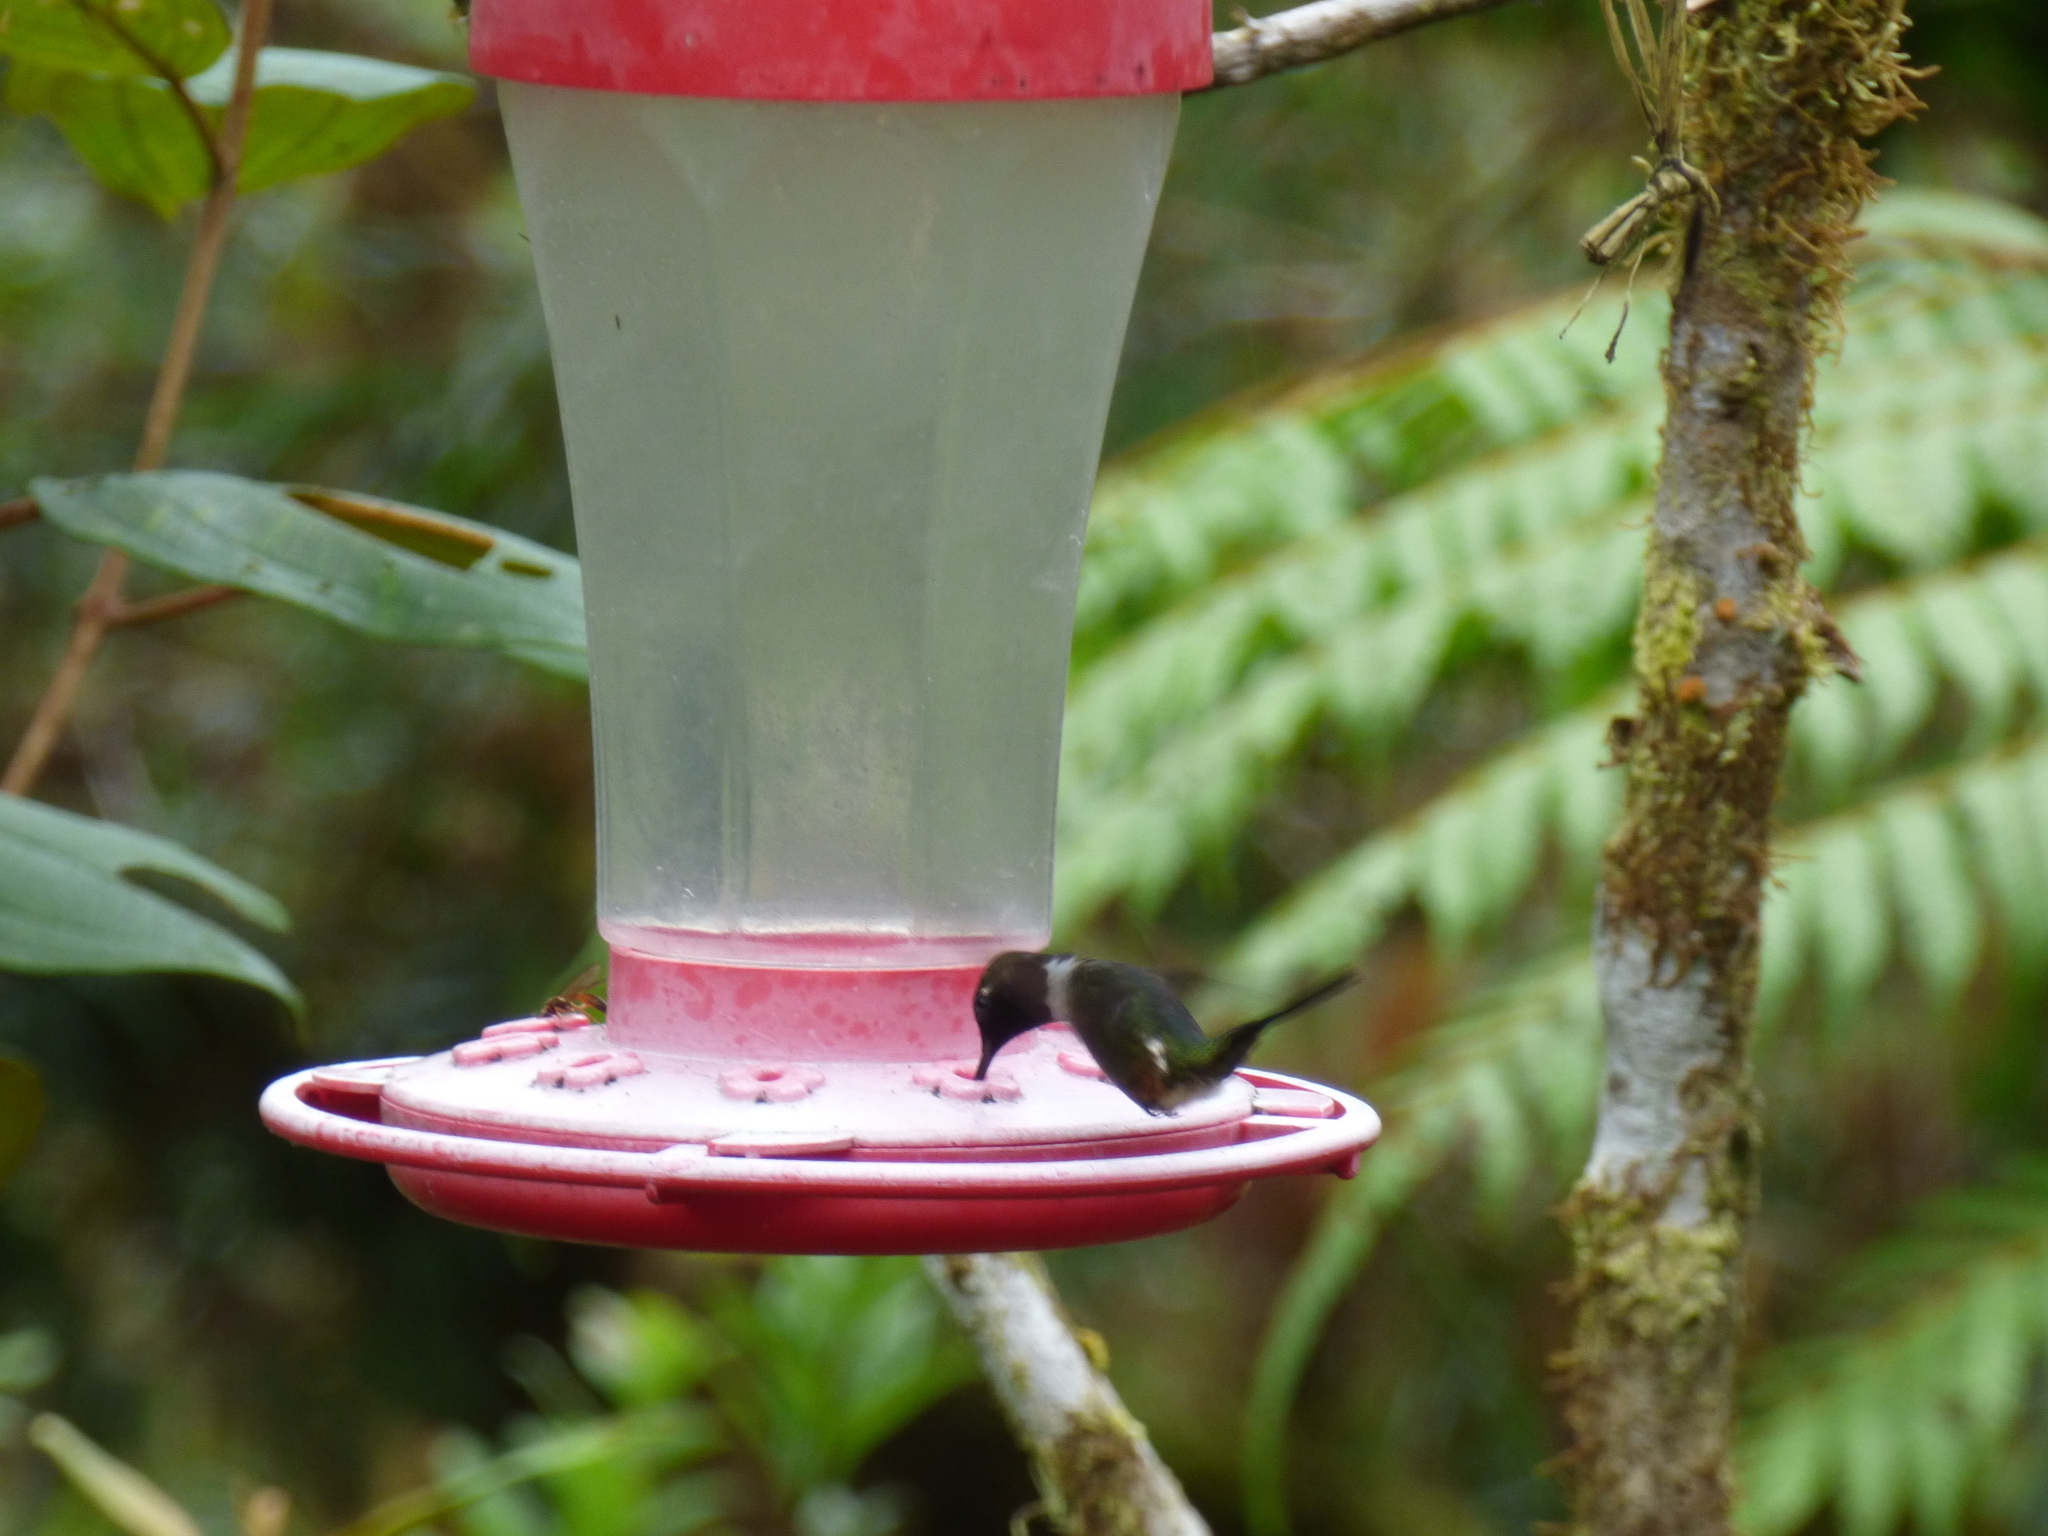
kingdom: Animalia
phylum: Chordata
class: Aves
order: Apodiformes
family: Trochilidae
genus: Chaetocercus
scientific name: Chaetocercus mulsant
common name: White-bellied woodstar
